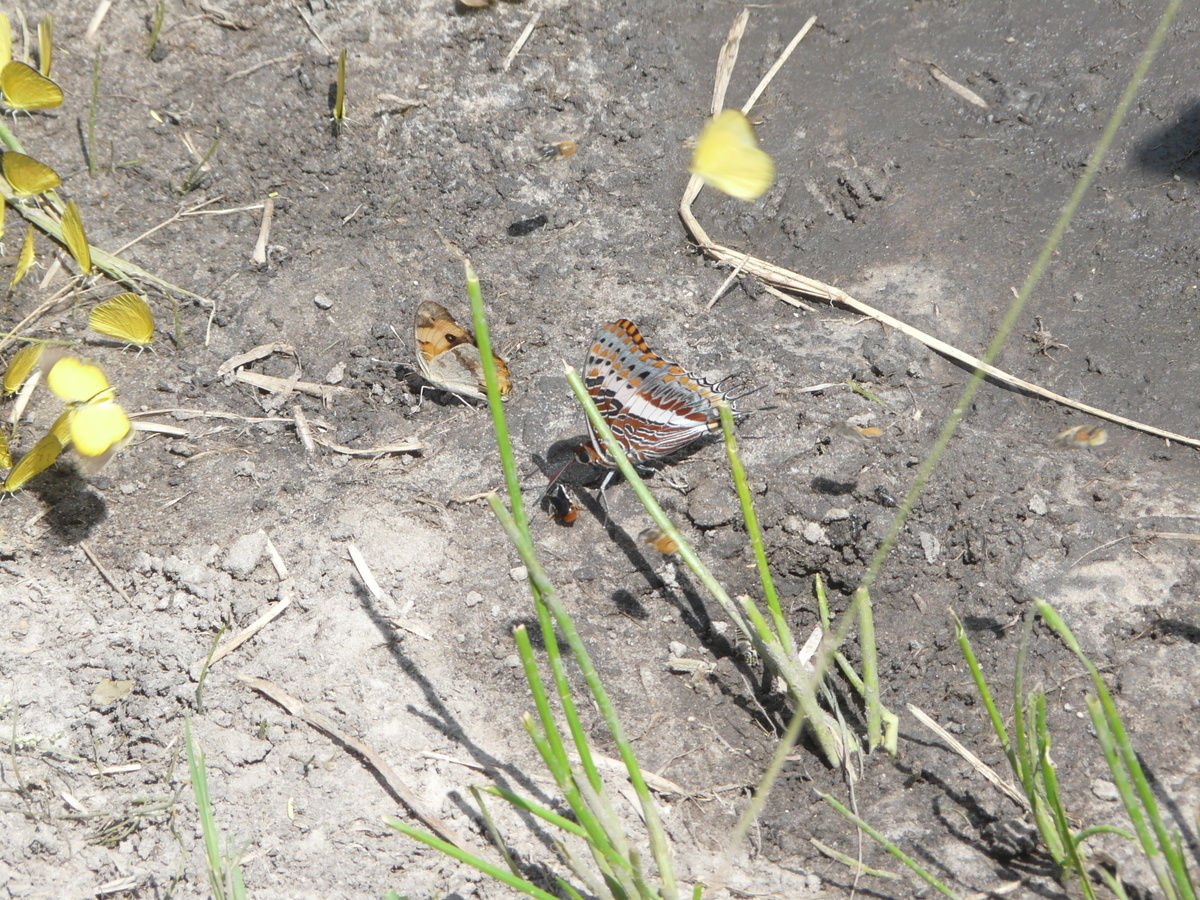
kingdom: Animalia
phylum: Arthropoda
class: Insecta
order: Lepidoptera
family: Nymphalidae
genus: Charaxes
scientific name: Charaxes jasius
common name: Two tailed pasha
